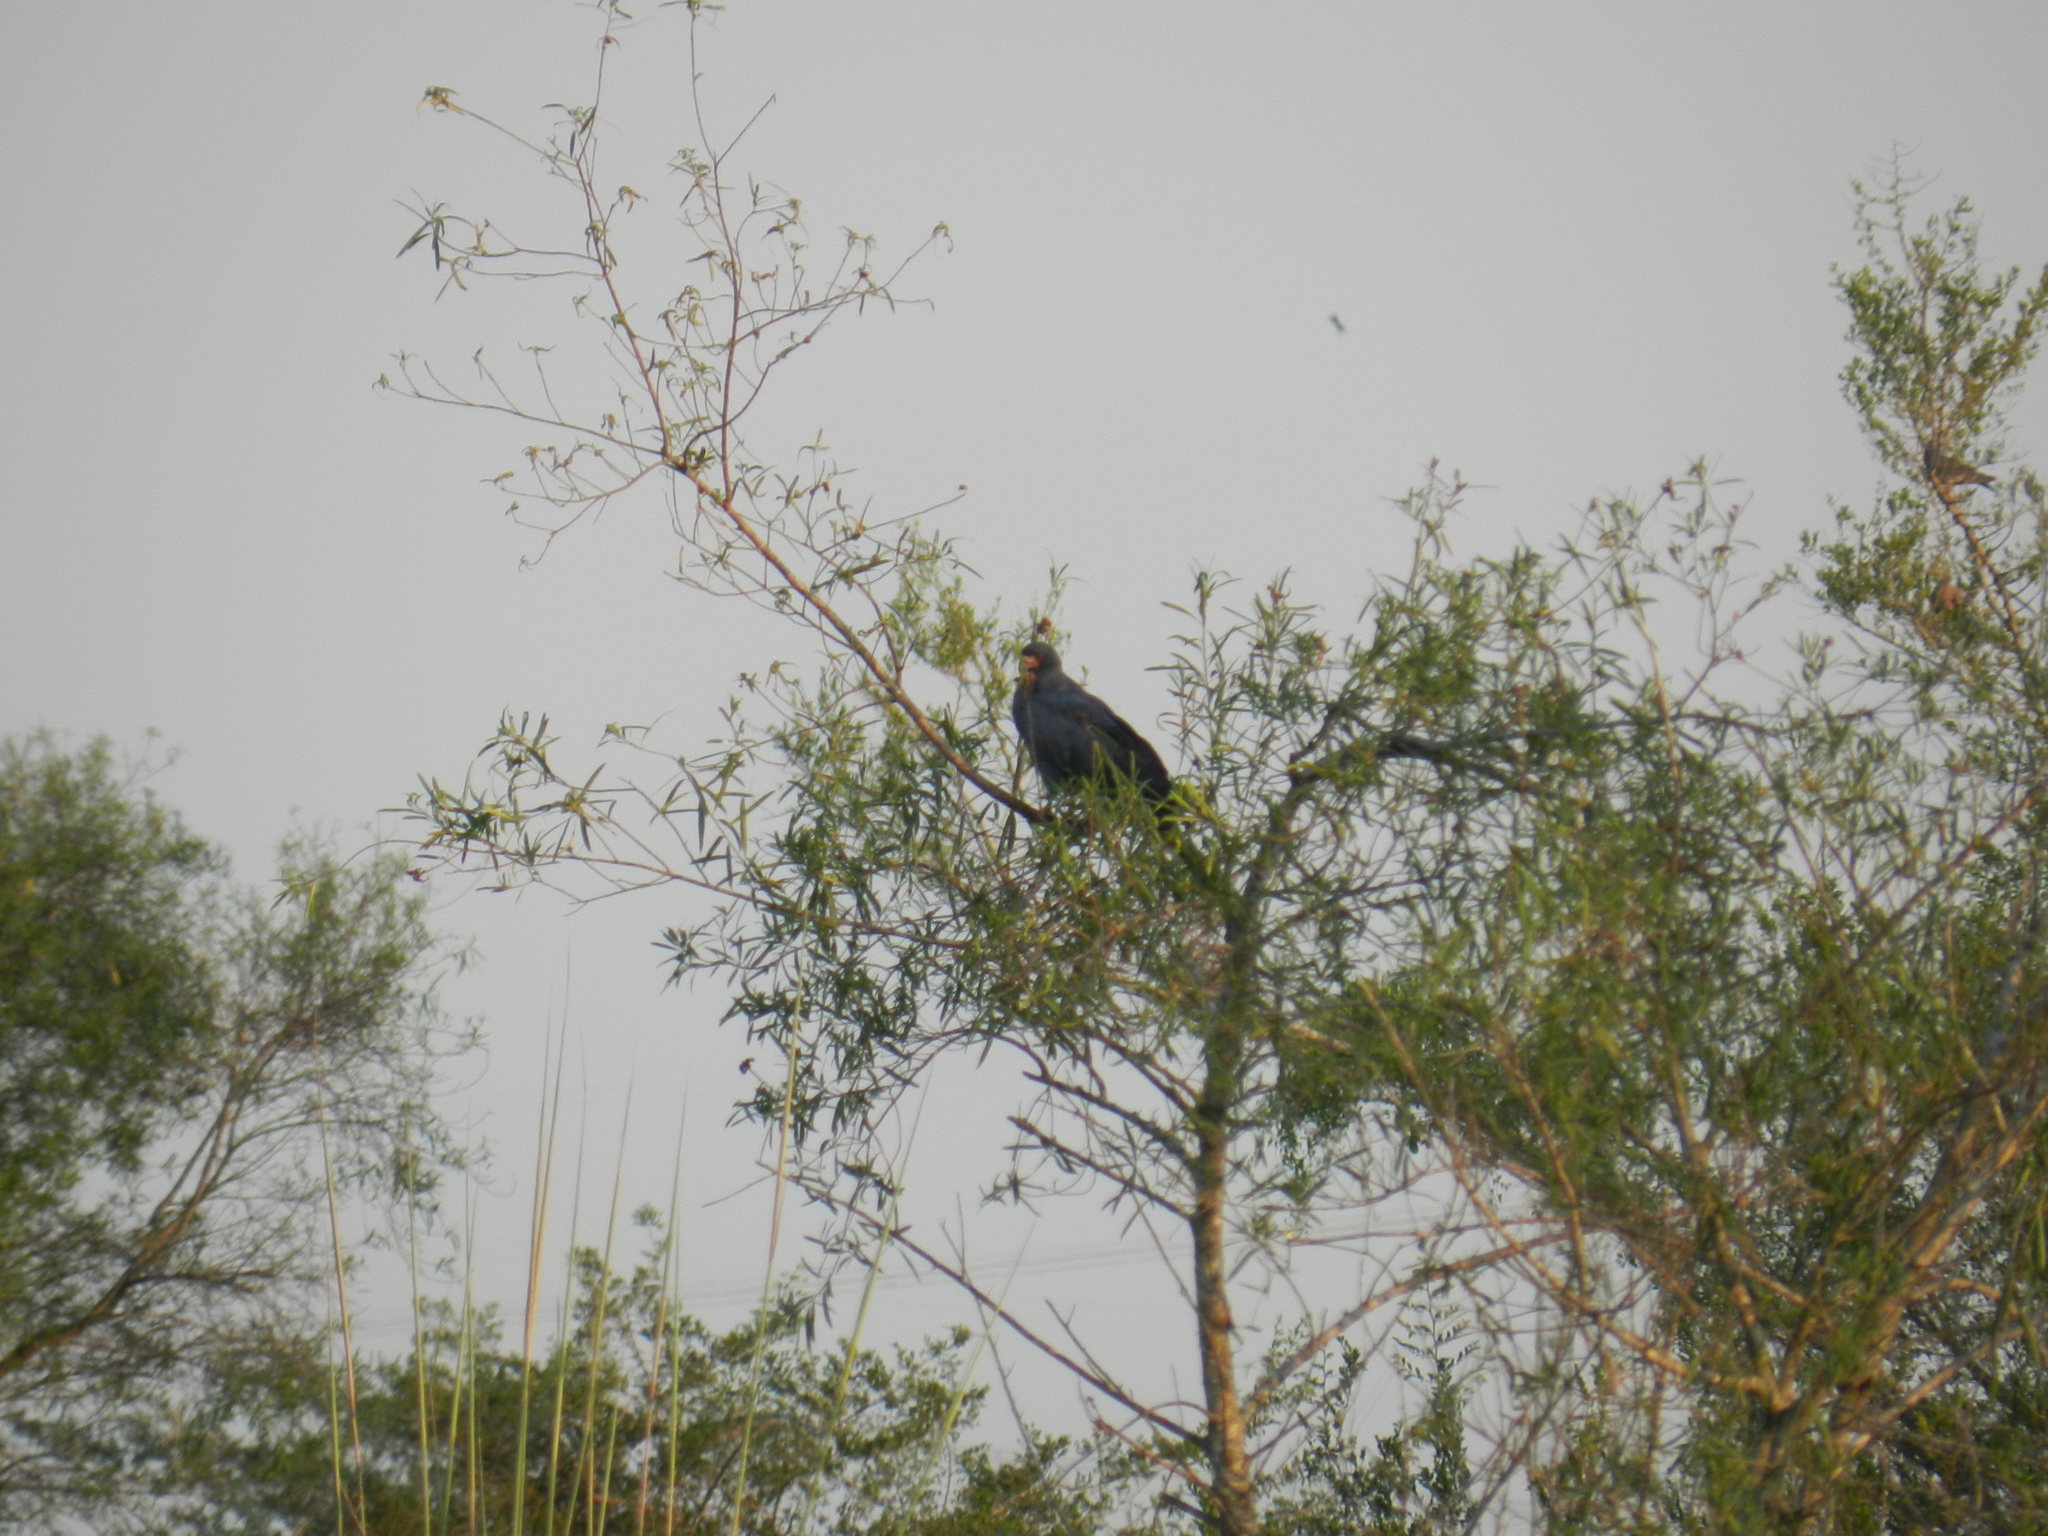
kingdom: Animalia
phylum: Chordata
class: Aves
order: Accipitriformes
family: Accipitridae
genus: Rostrhamus
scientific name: Rostrhamus sociabilis
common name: Snail kite
